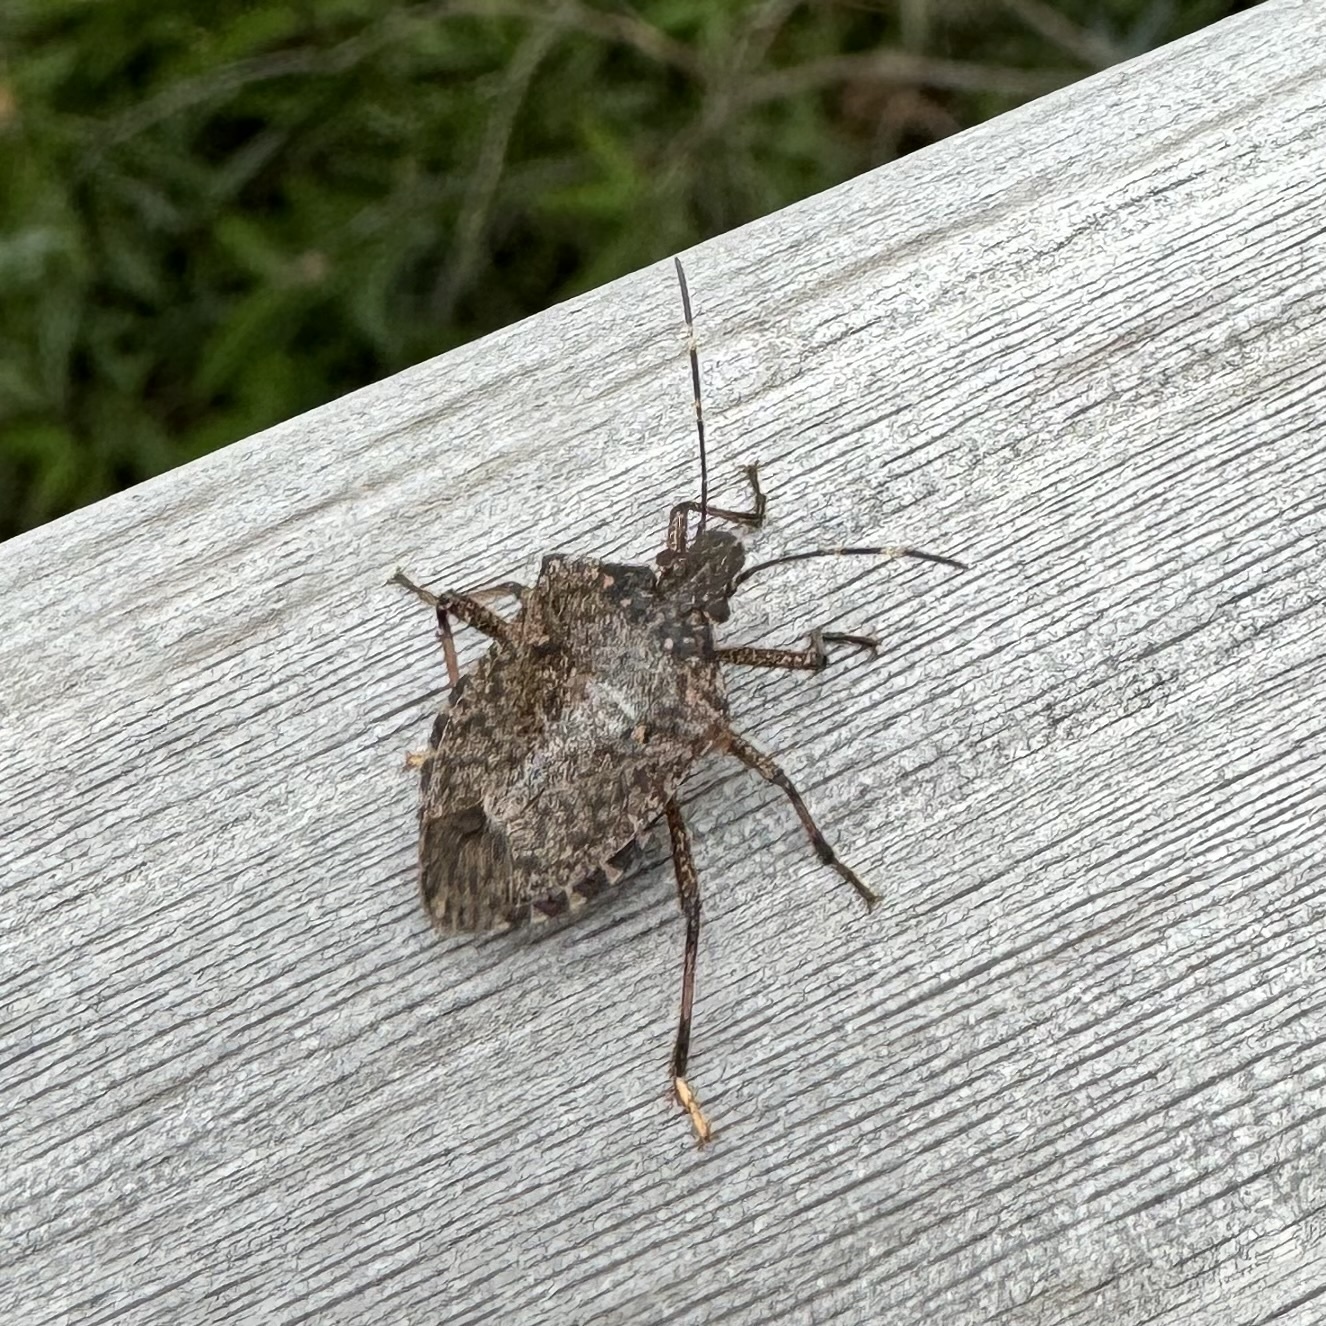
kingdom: Animalia
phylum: Arthropoda
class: Insecta
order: Hemiptera
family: Pentatomidae
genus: Halyomorpha
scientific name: Halyomorpha halys
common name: Brown marmorated stink bug
